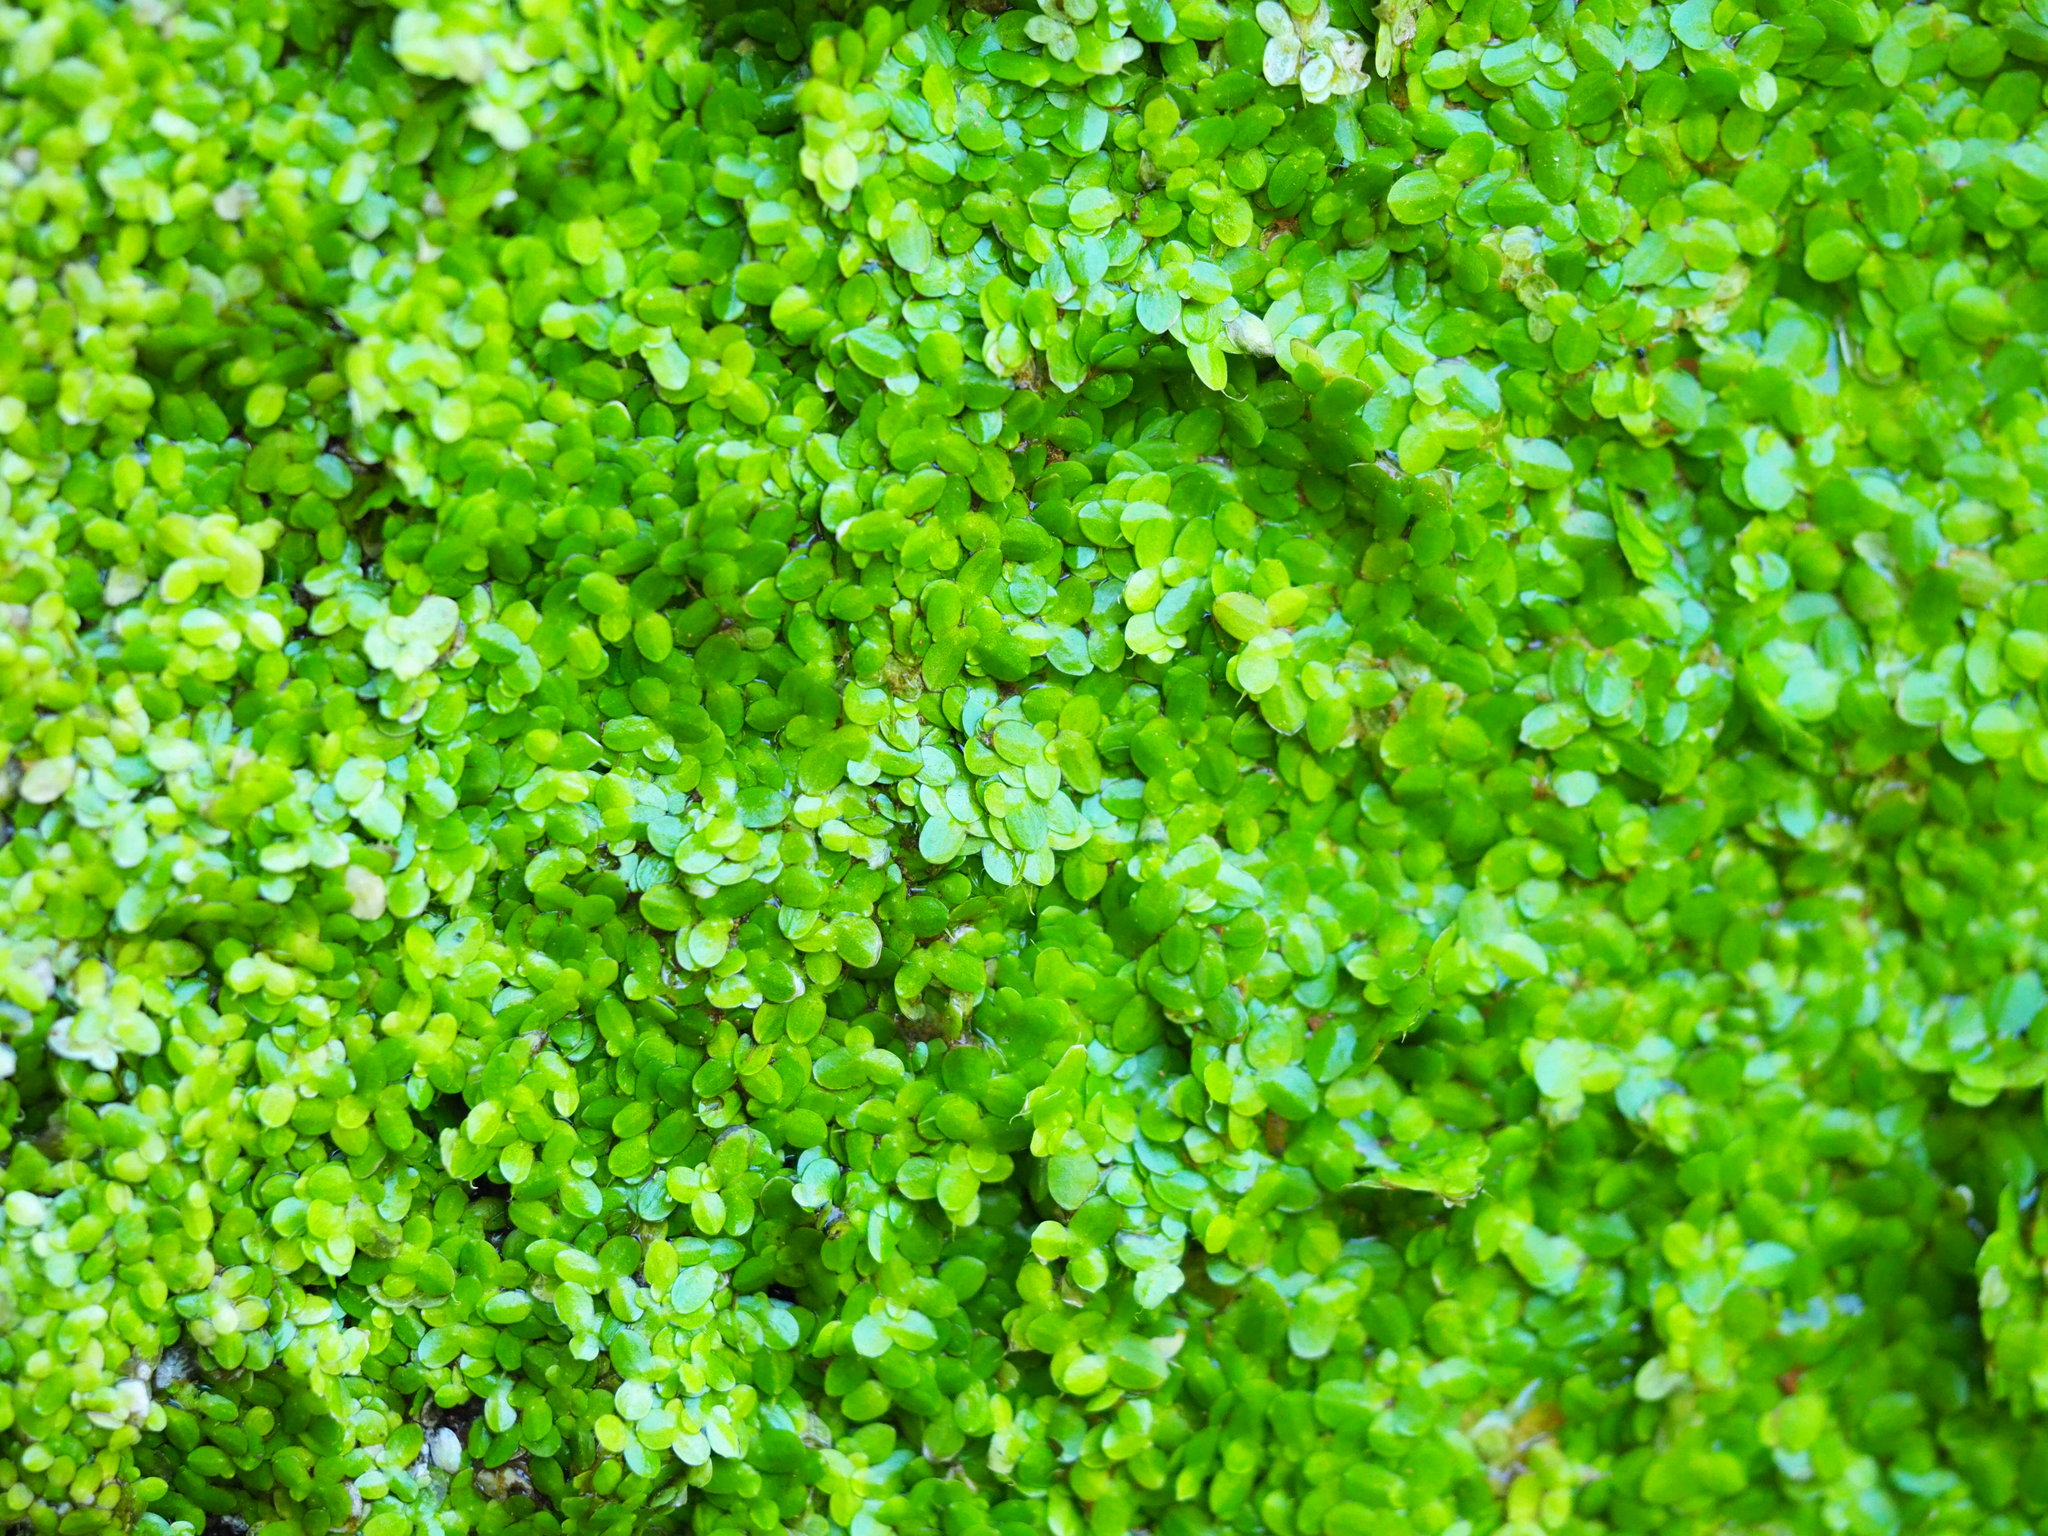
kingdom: Plantae
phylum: Tracheophyta
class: Liliopsida
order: Alismatales
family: Araceae
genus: Lemna
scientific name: Lemna aequinoctialis
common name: Duckweed
